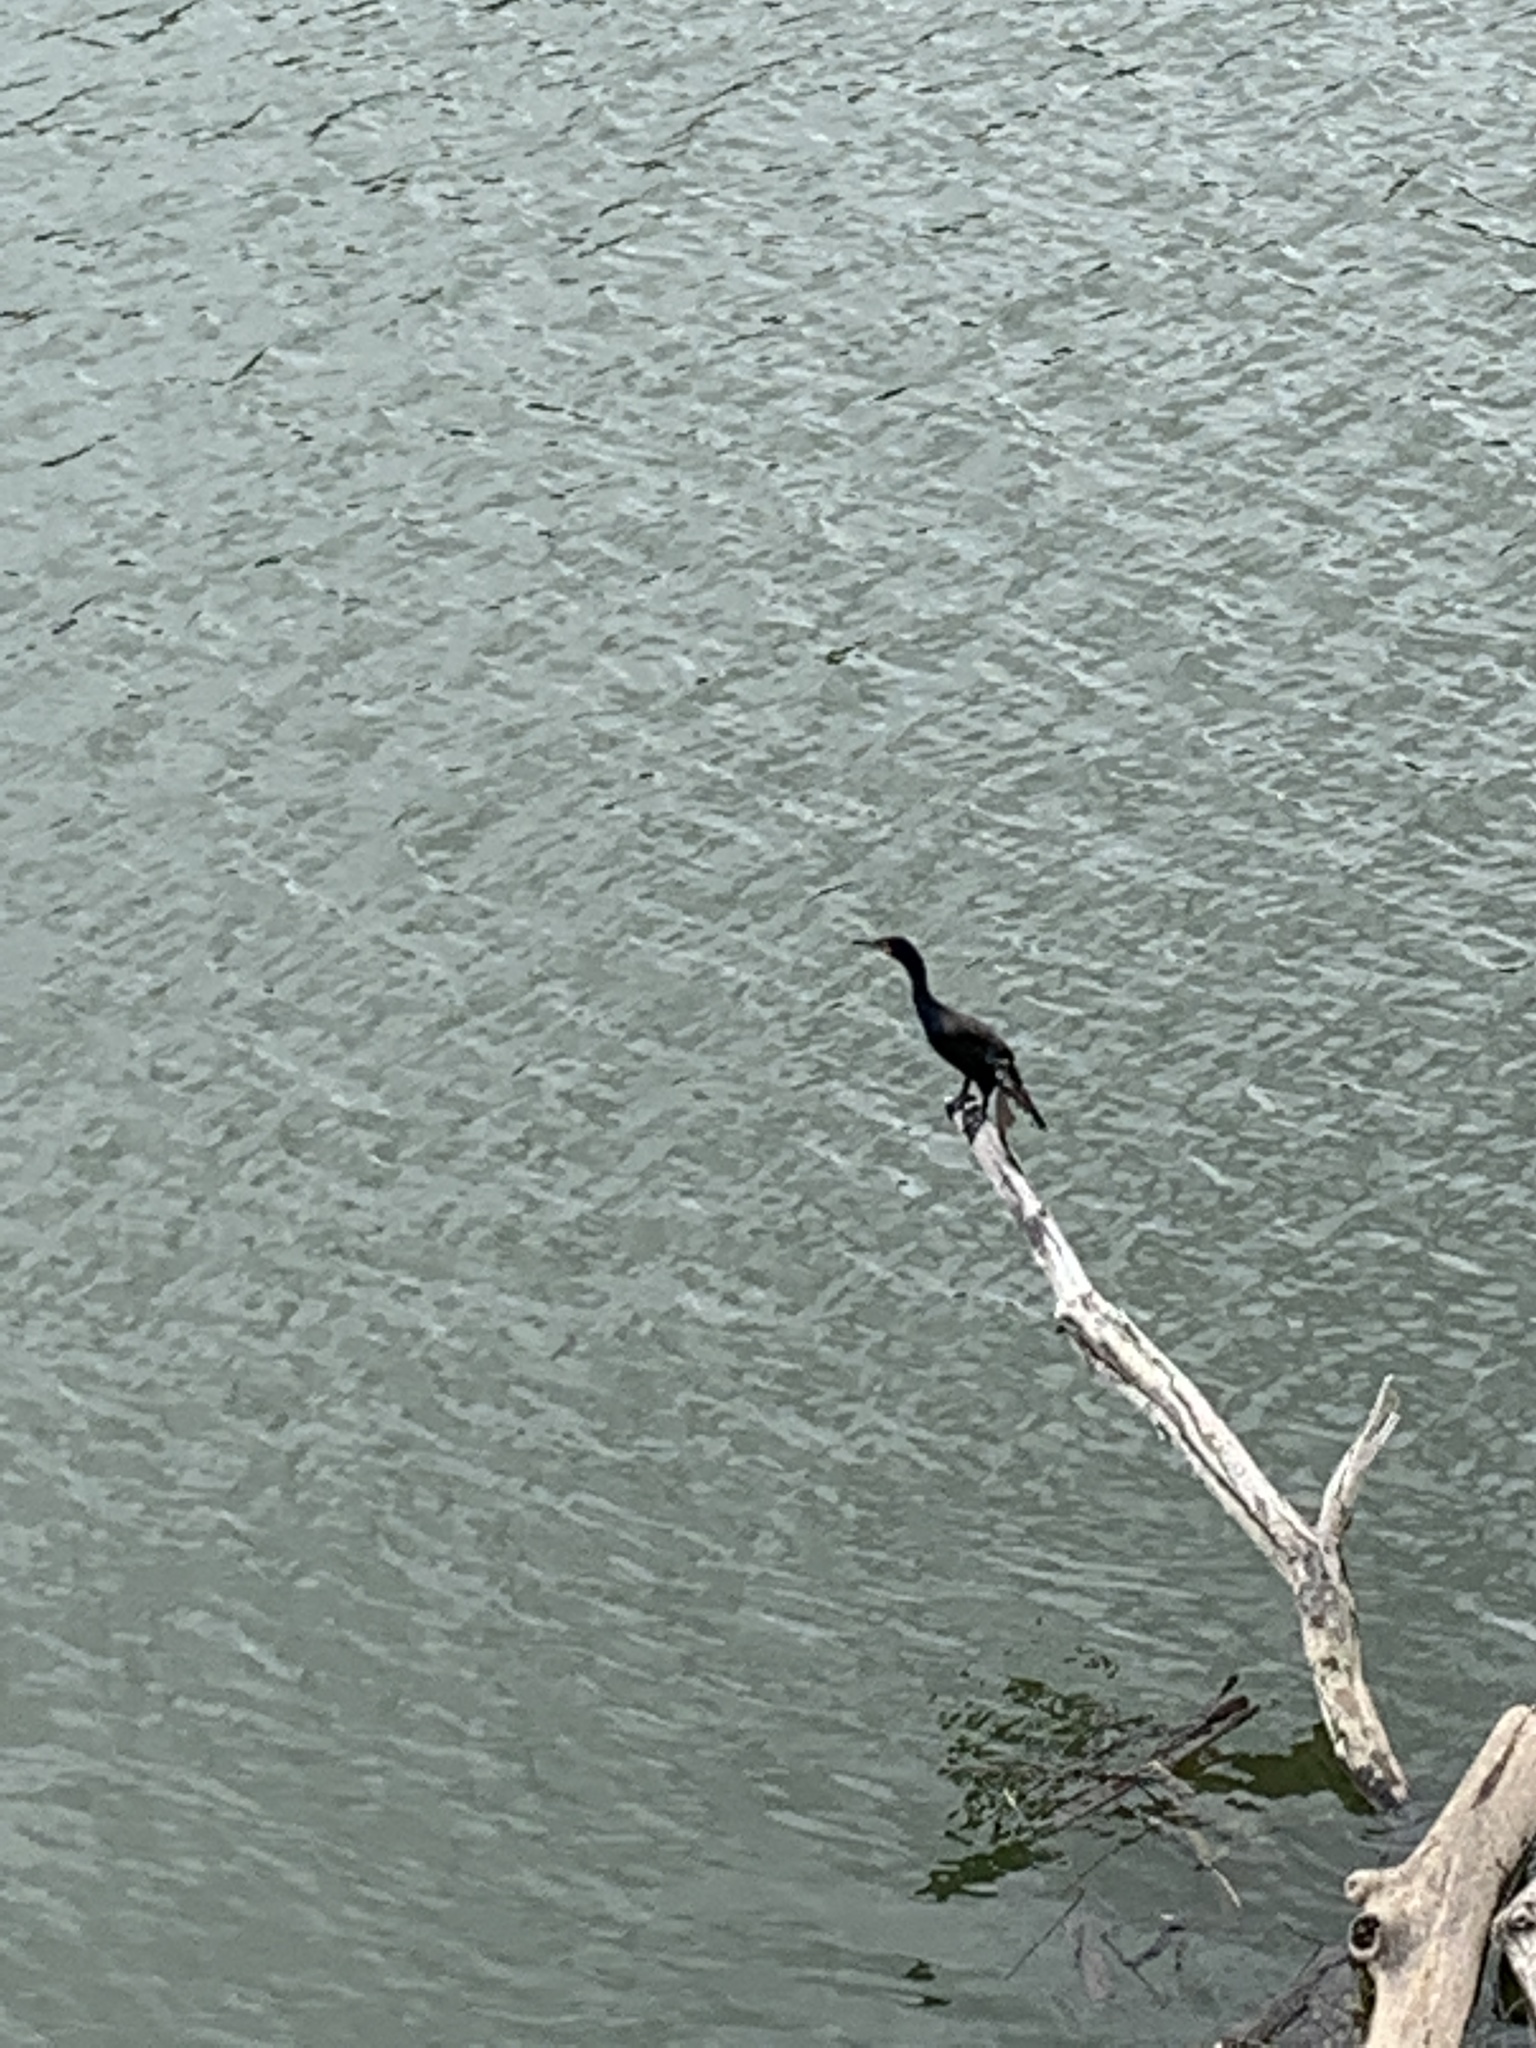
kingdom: Animalia
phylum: Chordata
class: Aves
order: Suliformes
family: Phalacrocoracidae
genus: Phalacrocorax
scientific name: Phalacrocorax auritus
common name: Double-crested cormorant
